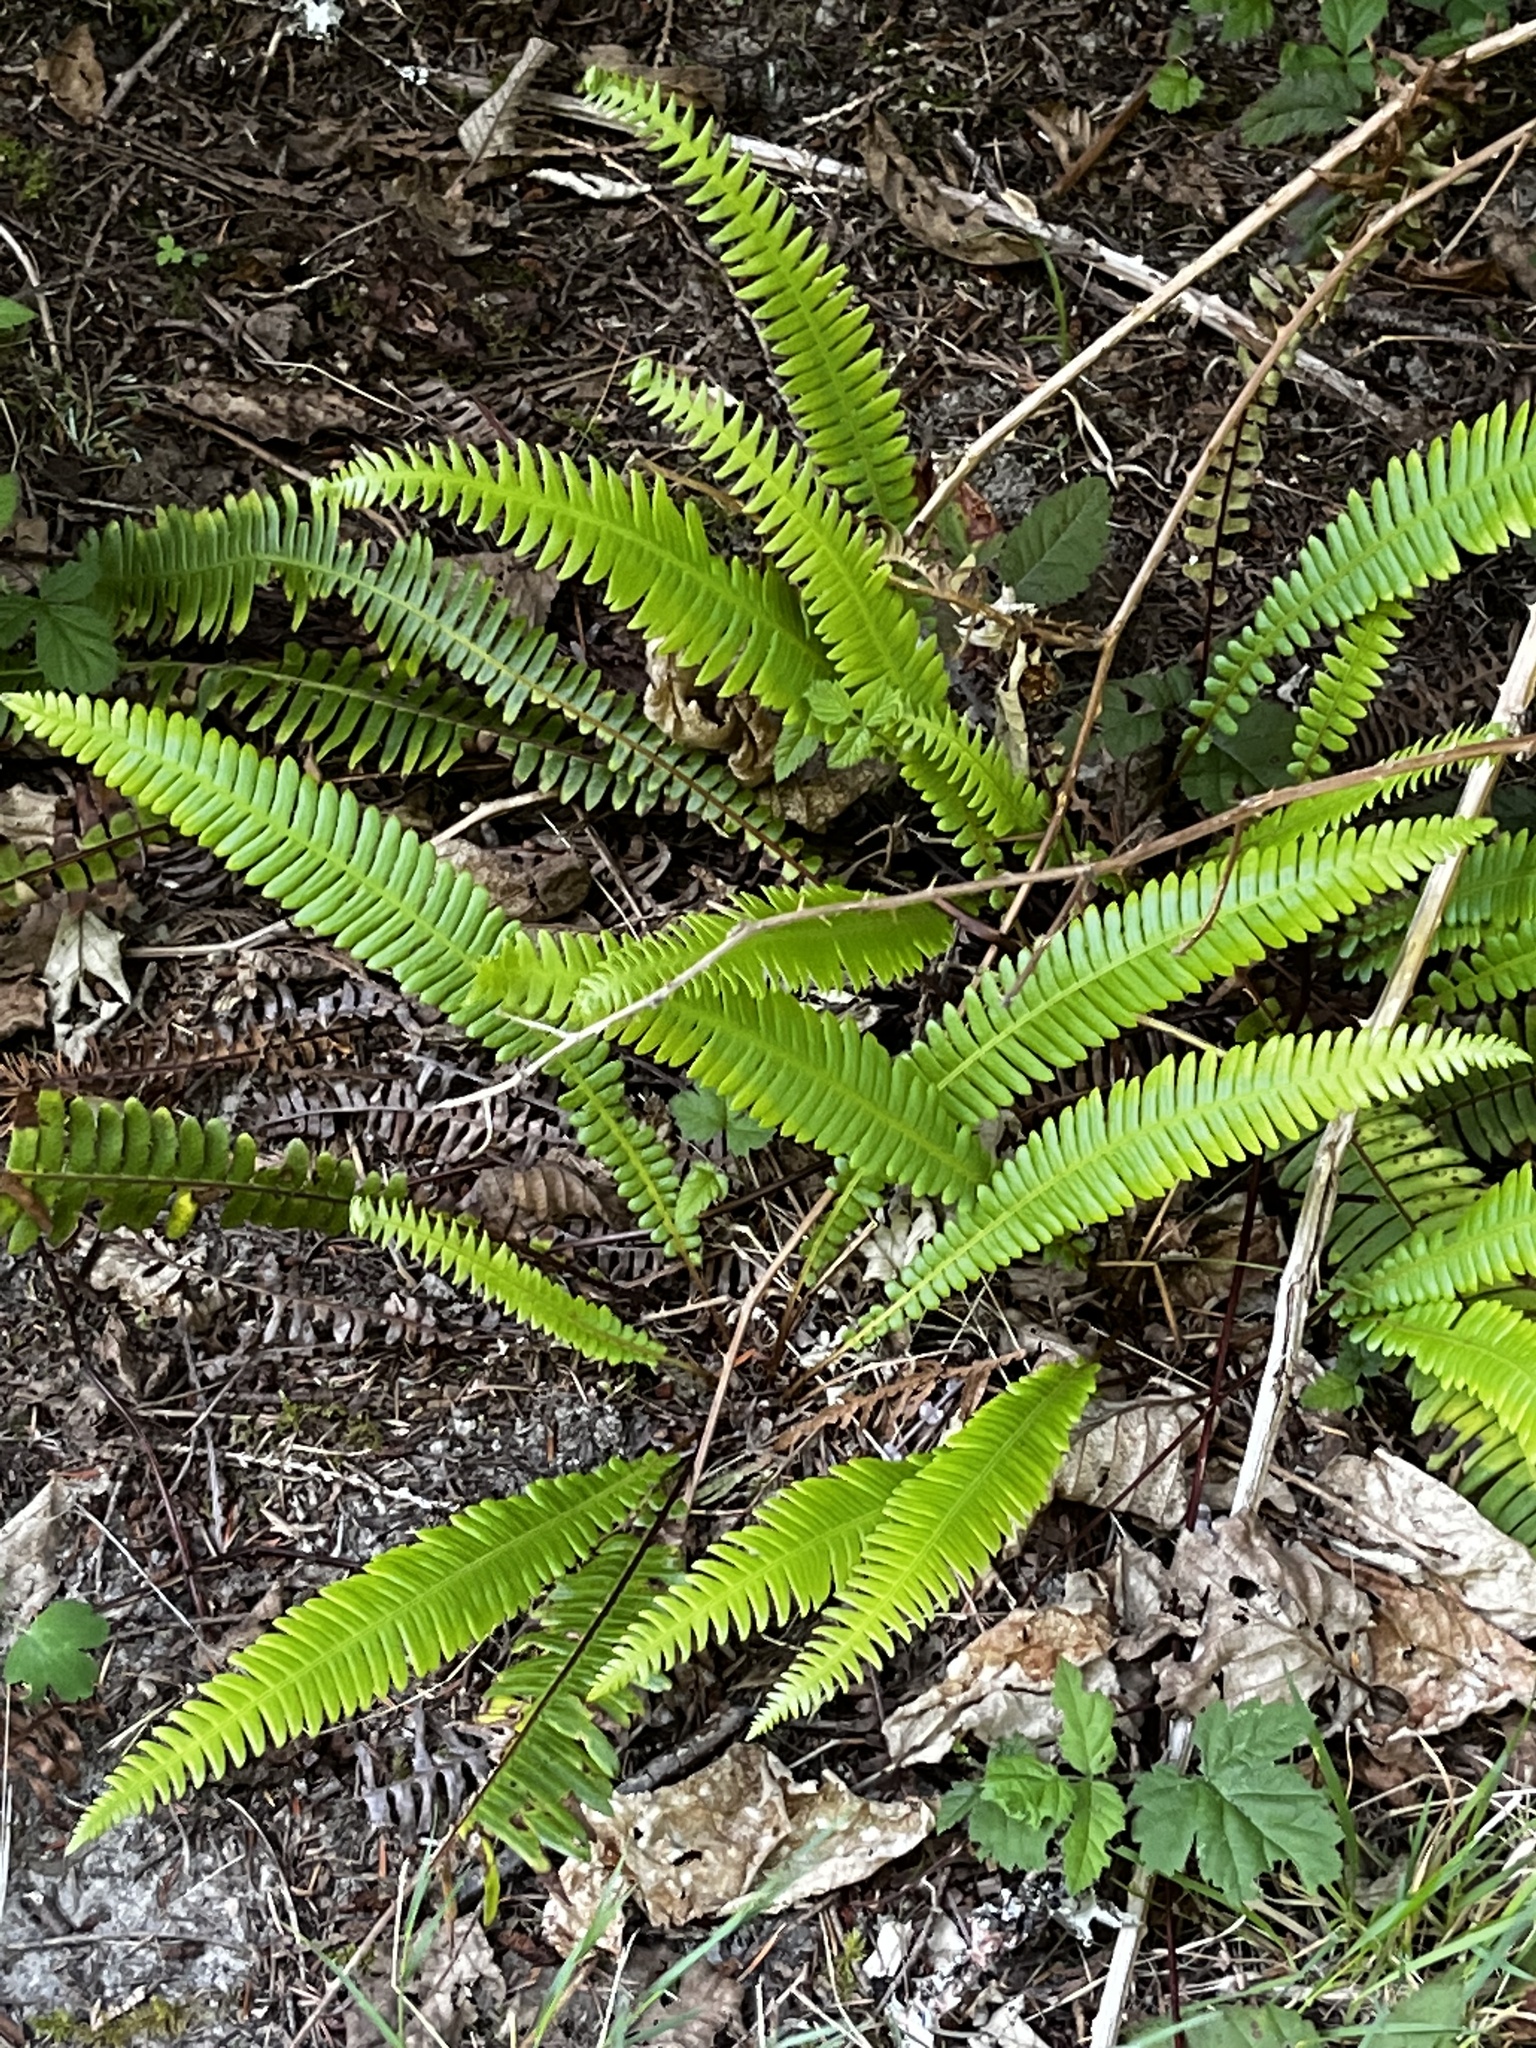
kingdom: Plantae
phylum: Tracheophyta
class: Polypodiopsida
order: Polypodiales
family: Blechnaceae
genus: Struthiopteris
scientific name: Struthiopteris spicant
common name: Deer fern
